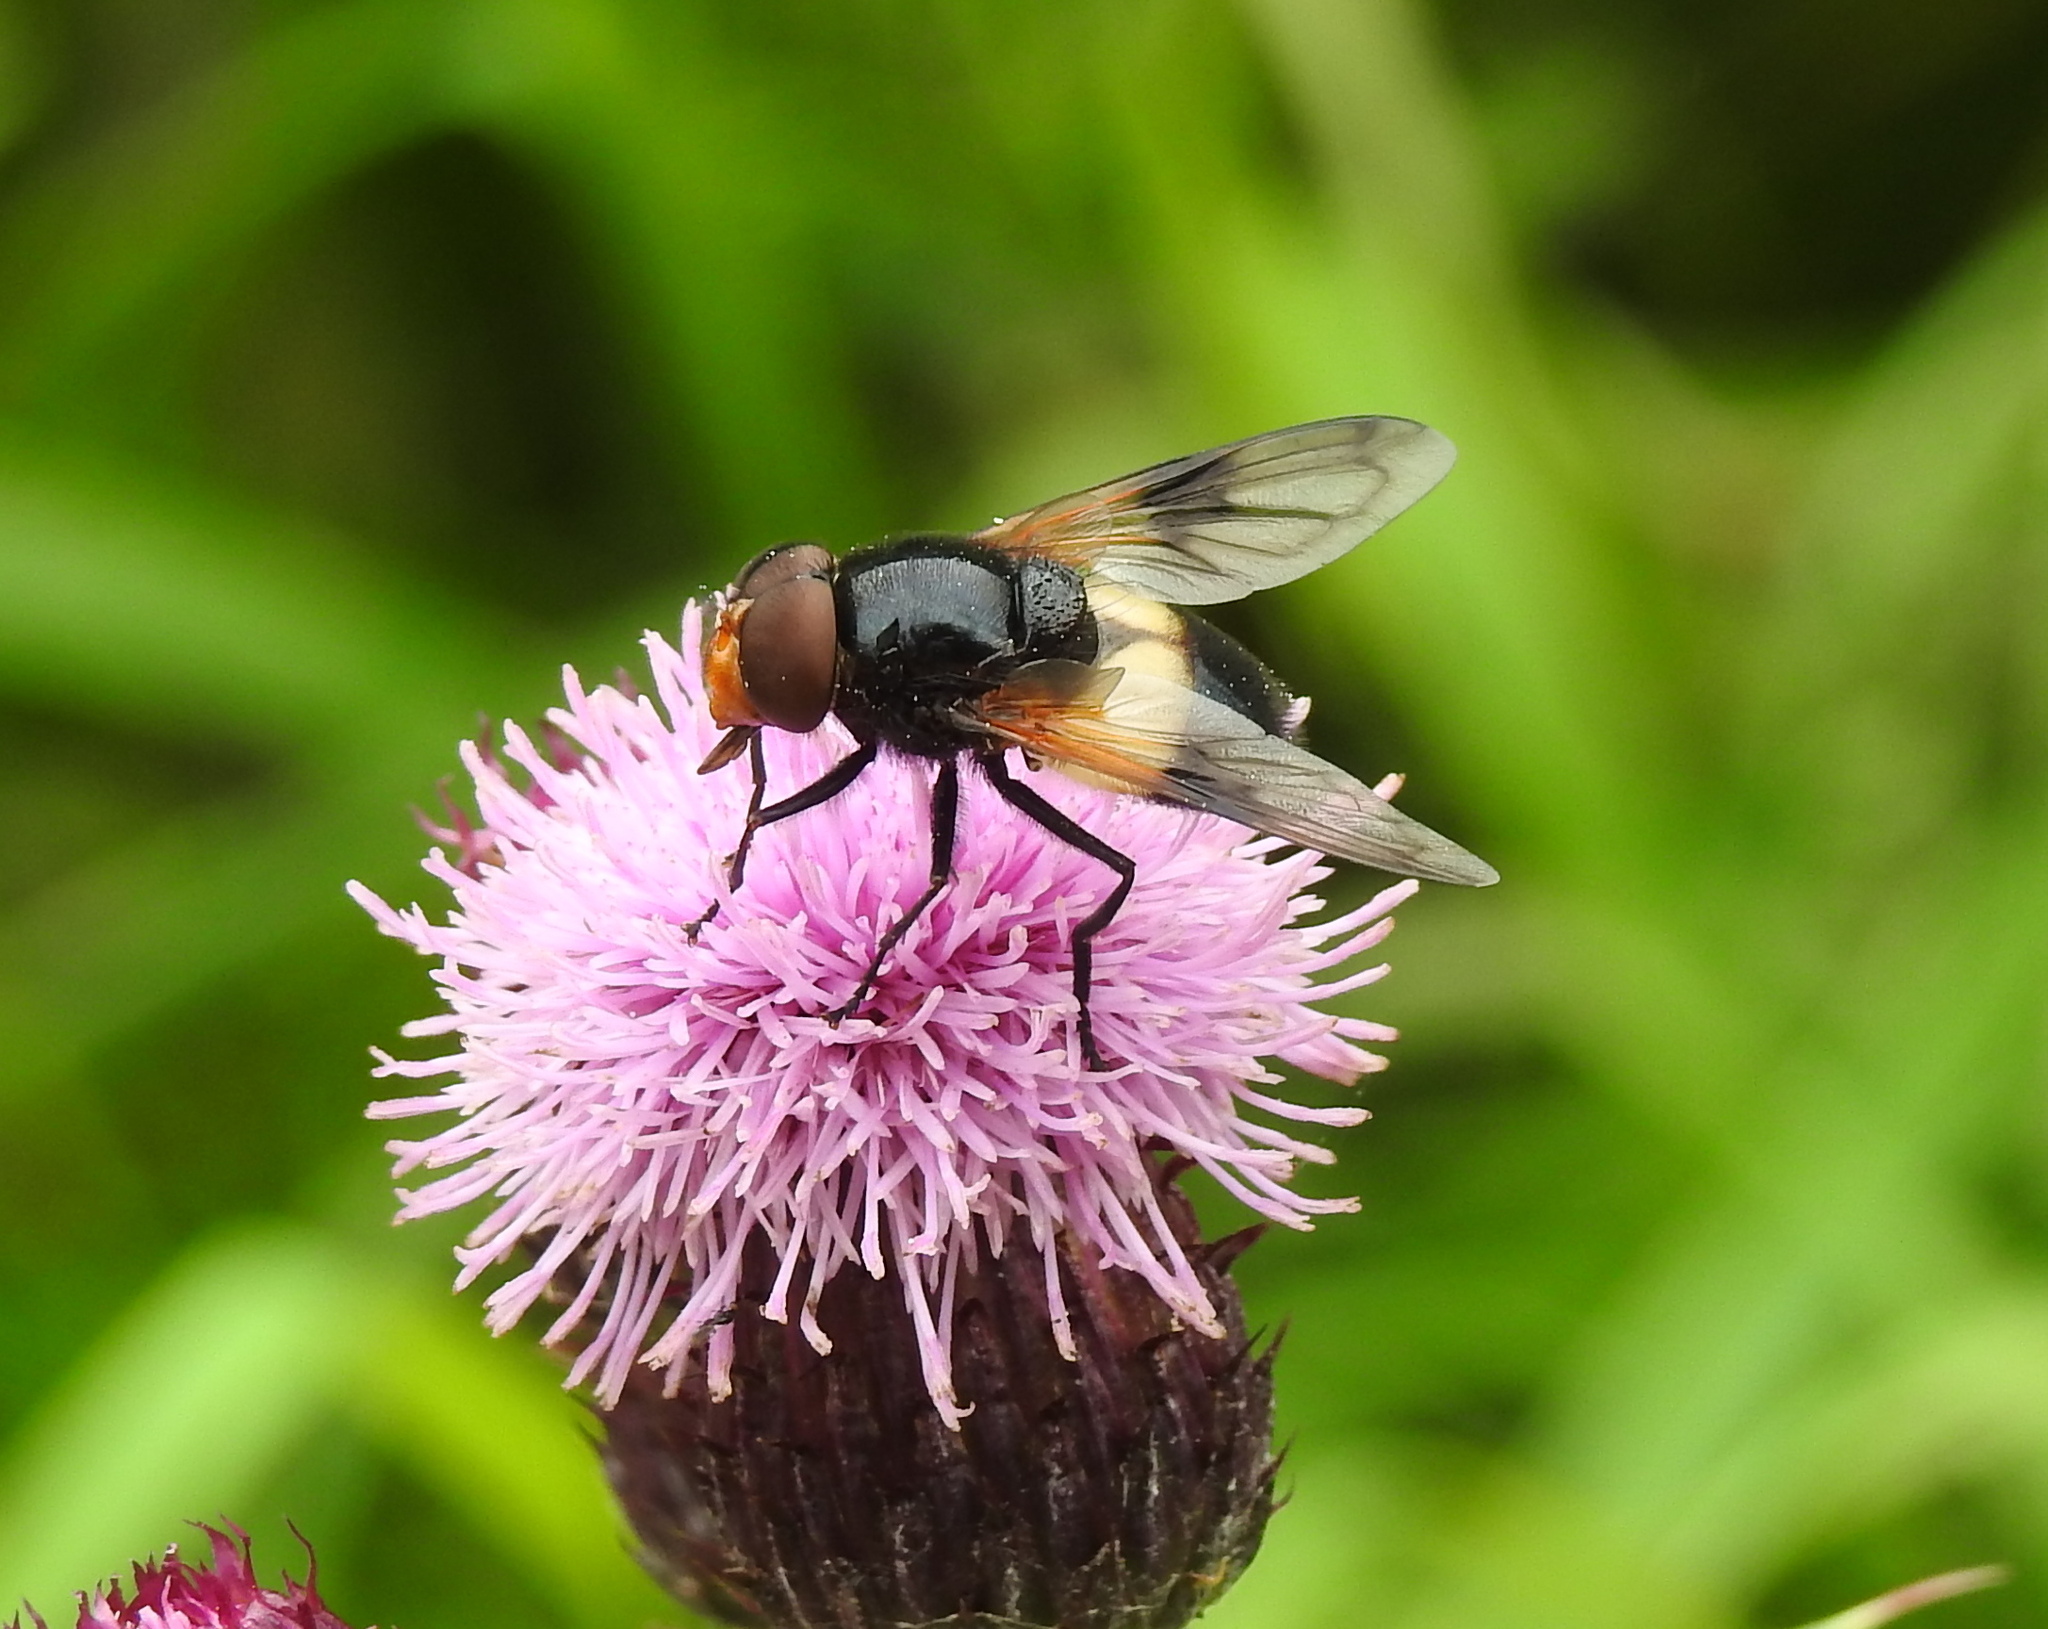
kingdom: Animalia
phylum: Arthropoda
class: Insecta
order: Diptera
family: Syrphidae
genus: Volucella
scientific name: Volucella pellucens
